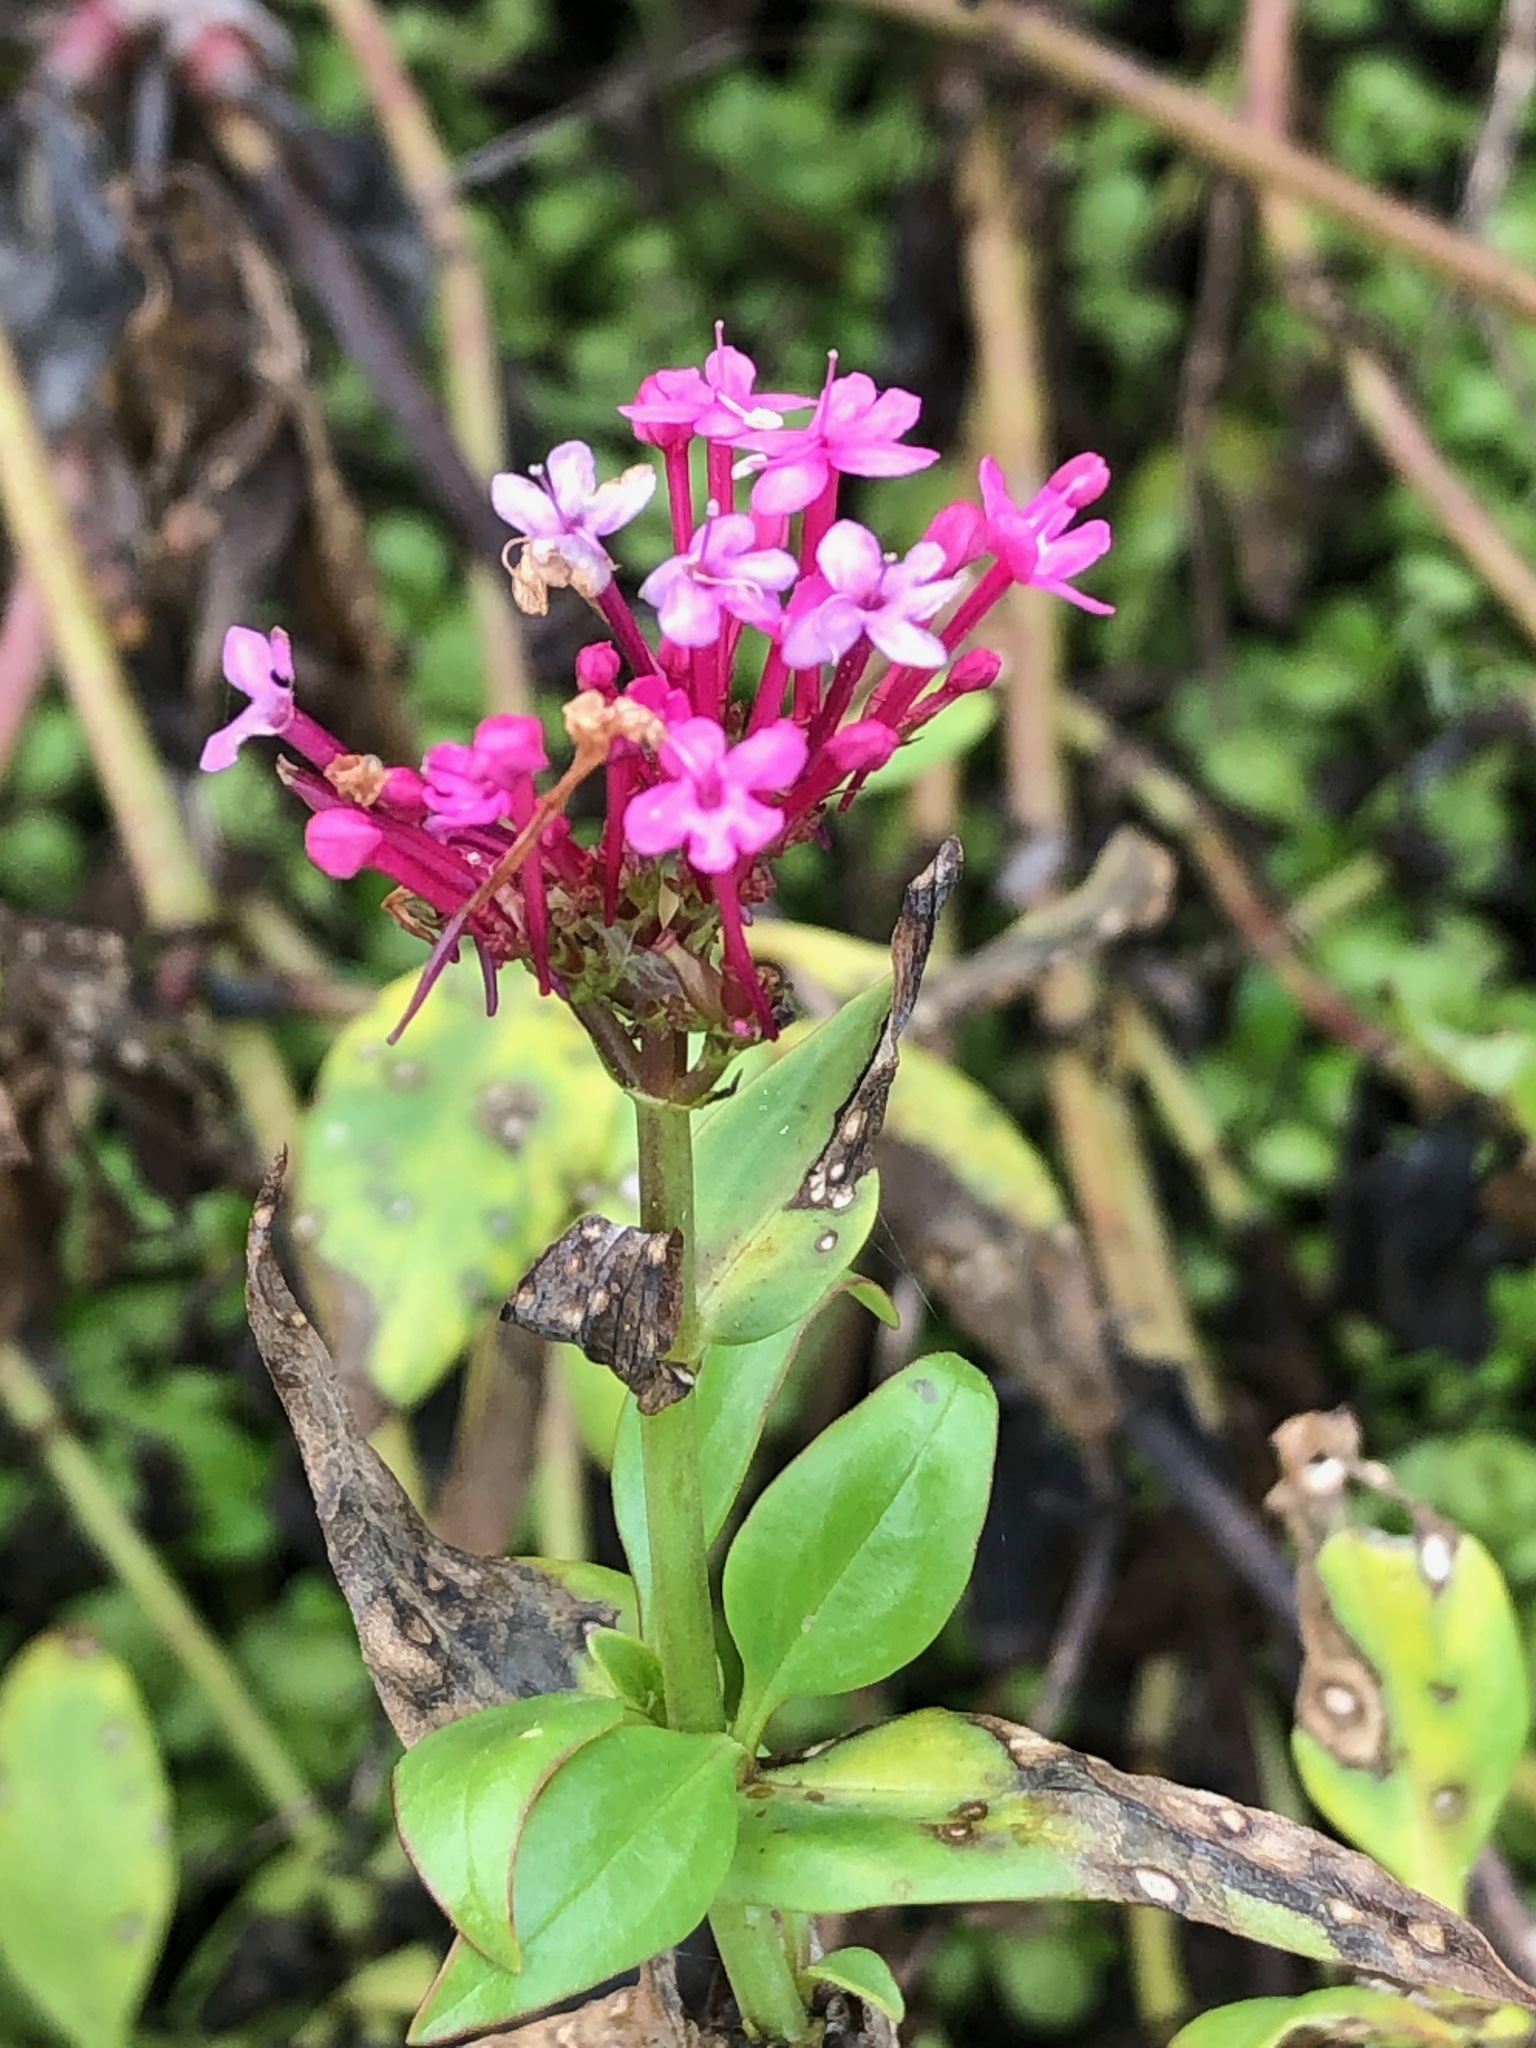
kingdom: Plantae
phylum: Tracheophyta
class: Magnoliopsida
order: Dipsacales
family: Caprifoliaceae
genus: Centranthus
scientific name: Centranthus ruber
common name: Red valerian
